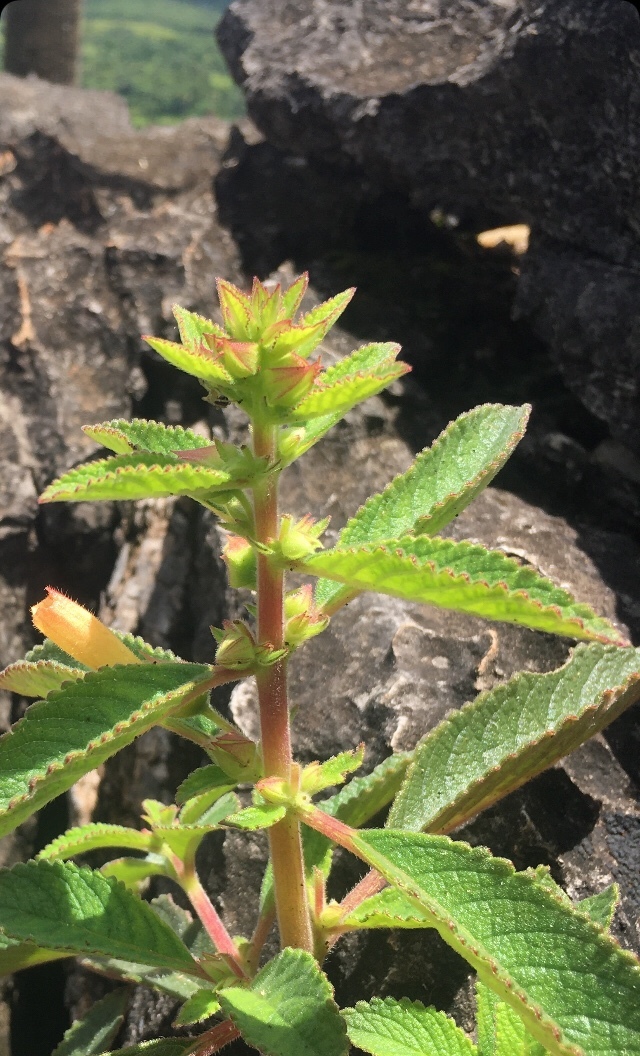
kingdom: Plantae
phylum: Tracheophyta
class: Magnoliopsida
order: Lamiales
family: Gesneriaceae
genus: Sinningia
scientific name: Sinningia elatior
